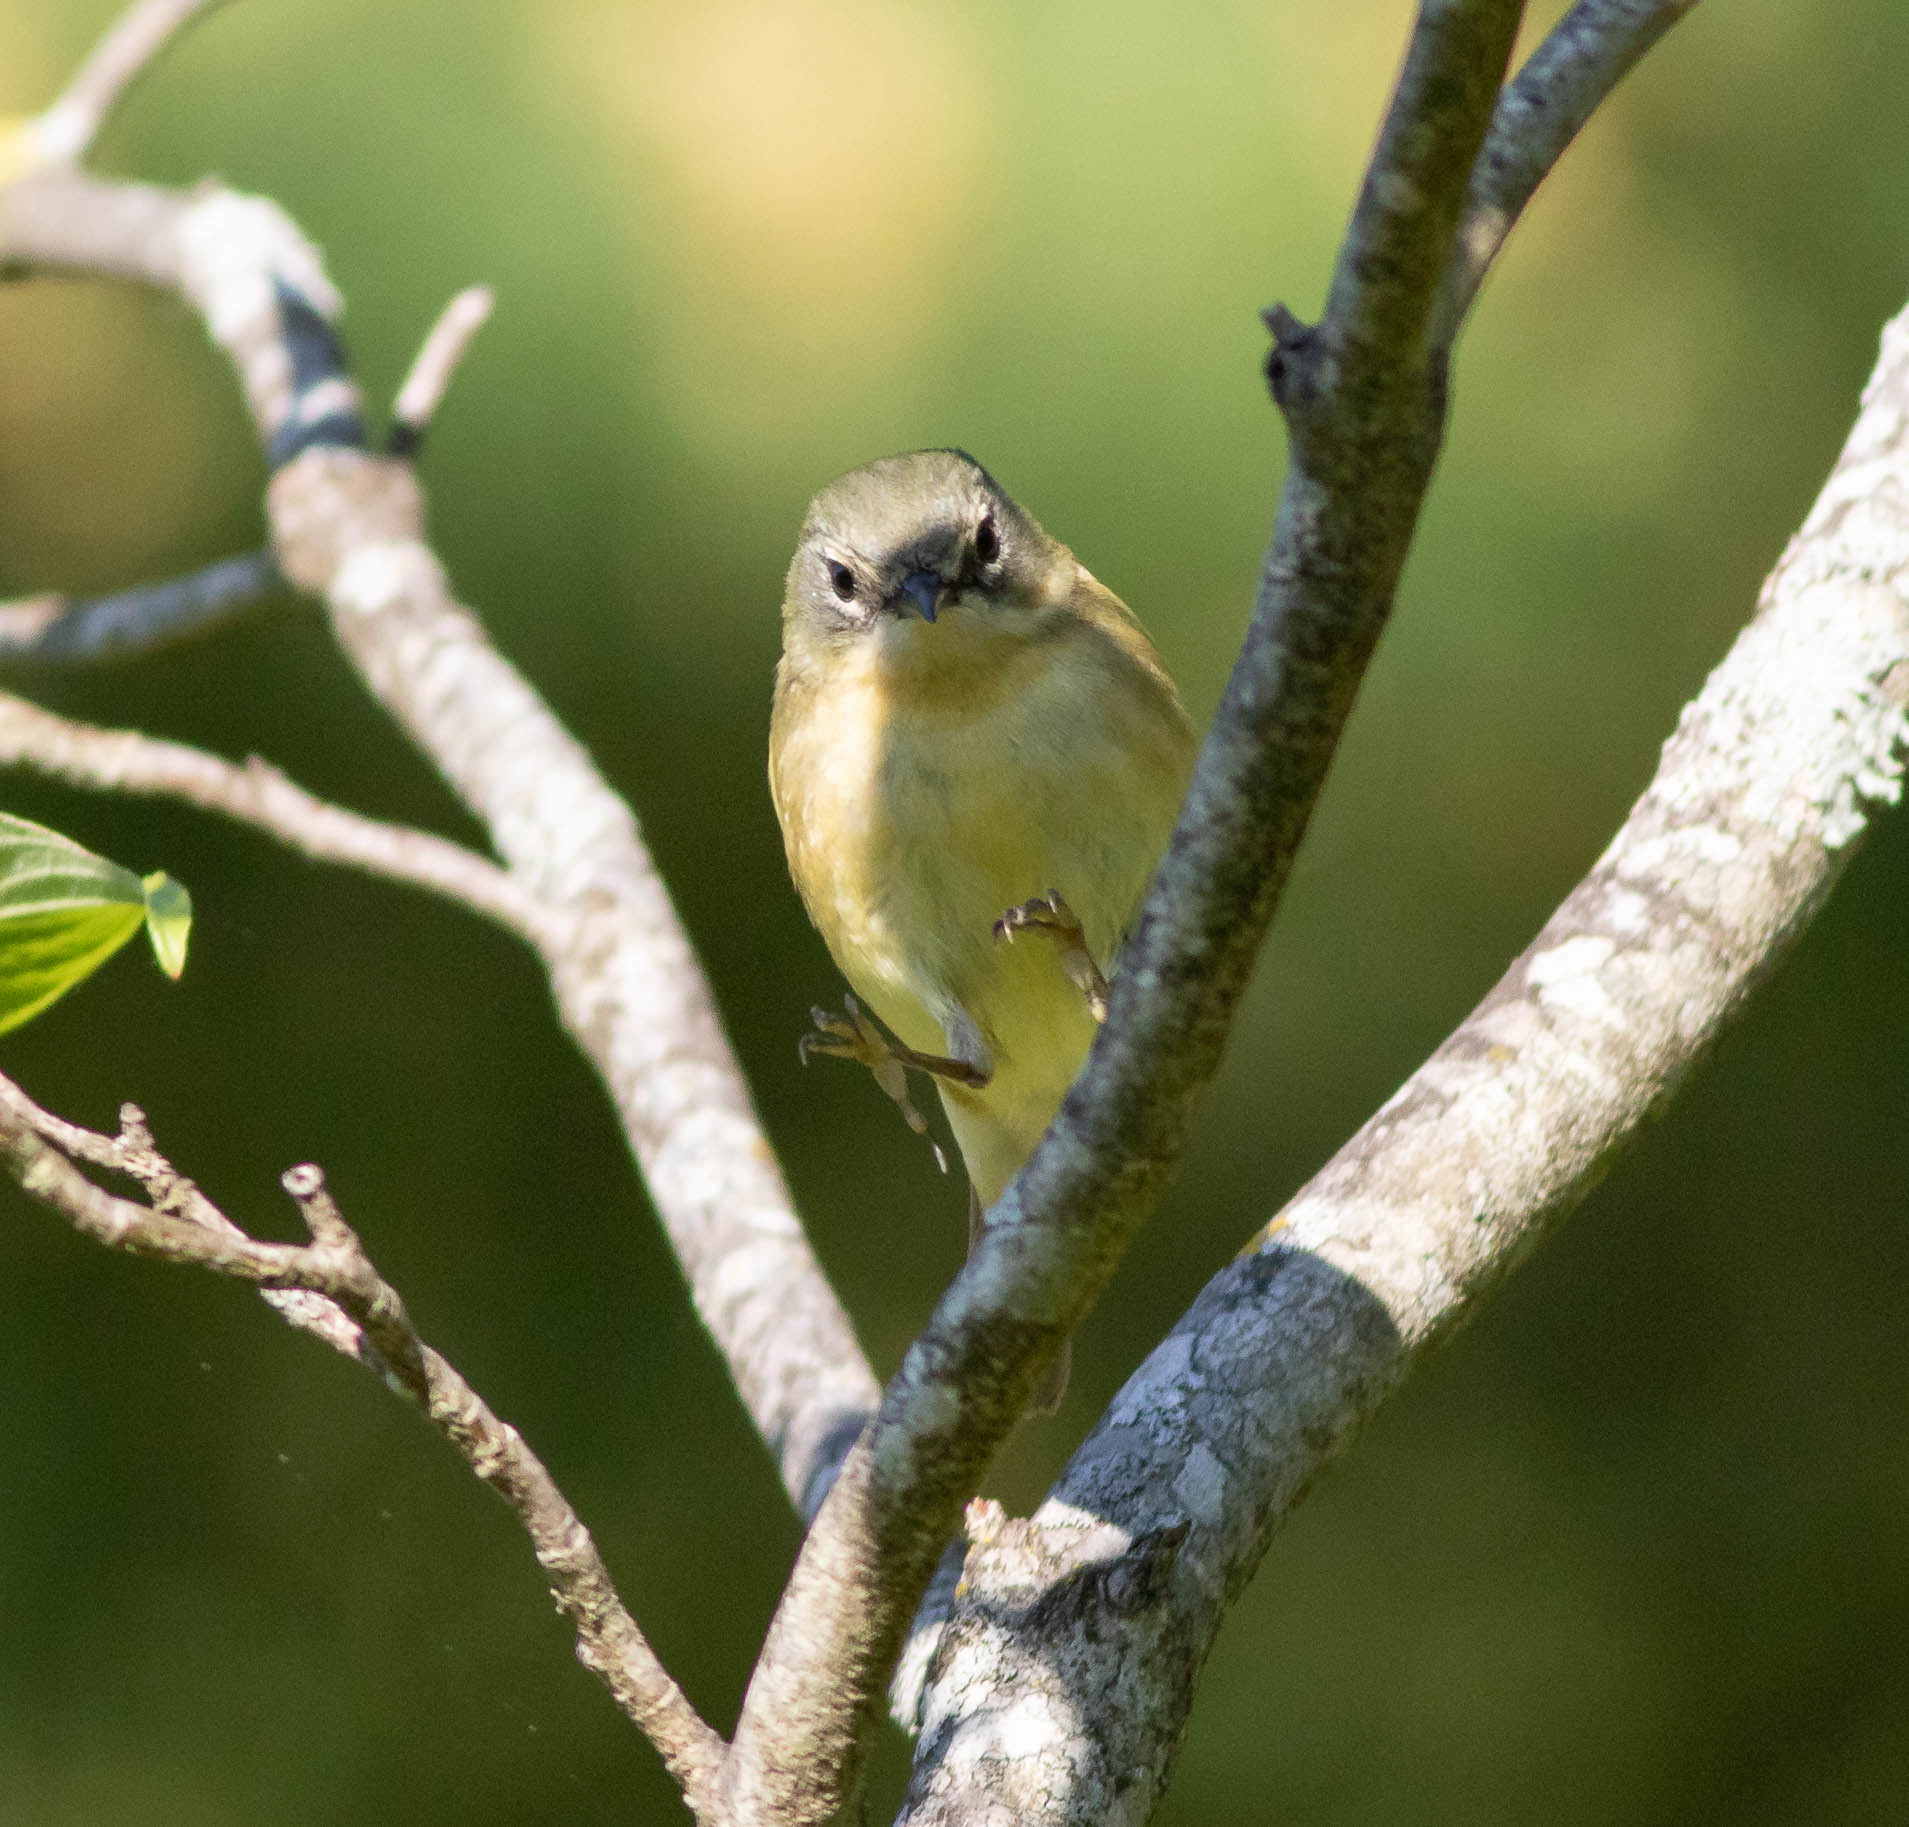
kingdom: Animalia
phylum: Chordata
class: Aves
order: Passeriformes
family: Parulidae
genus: Setophaga
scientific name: Setophaga caerulescens
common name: Black-throated blue warbler
